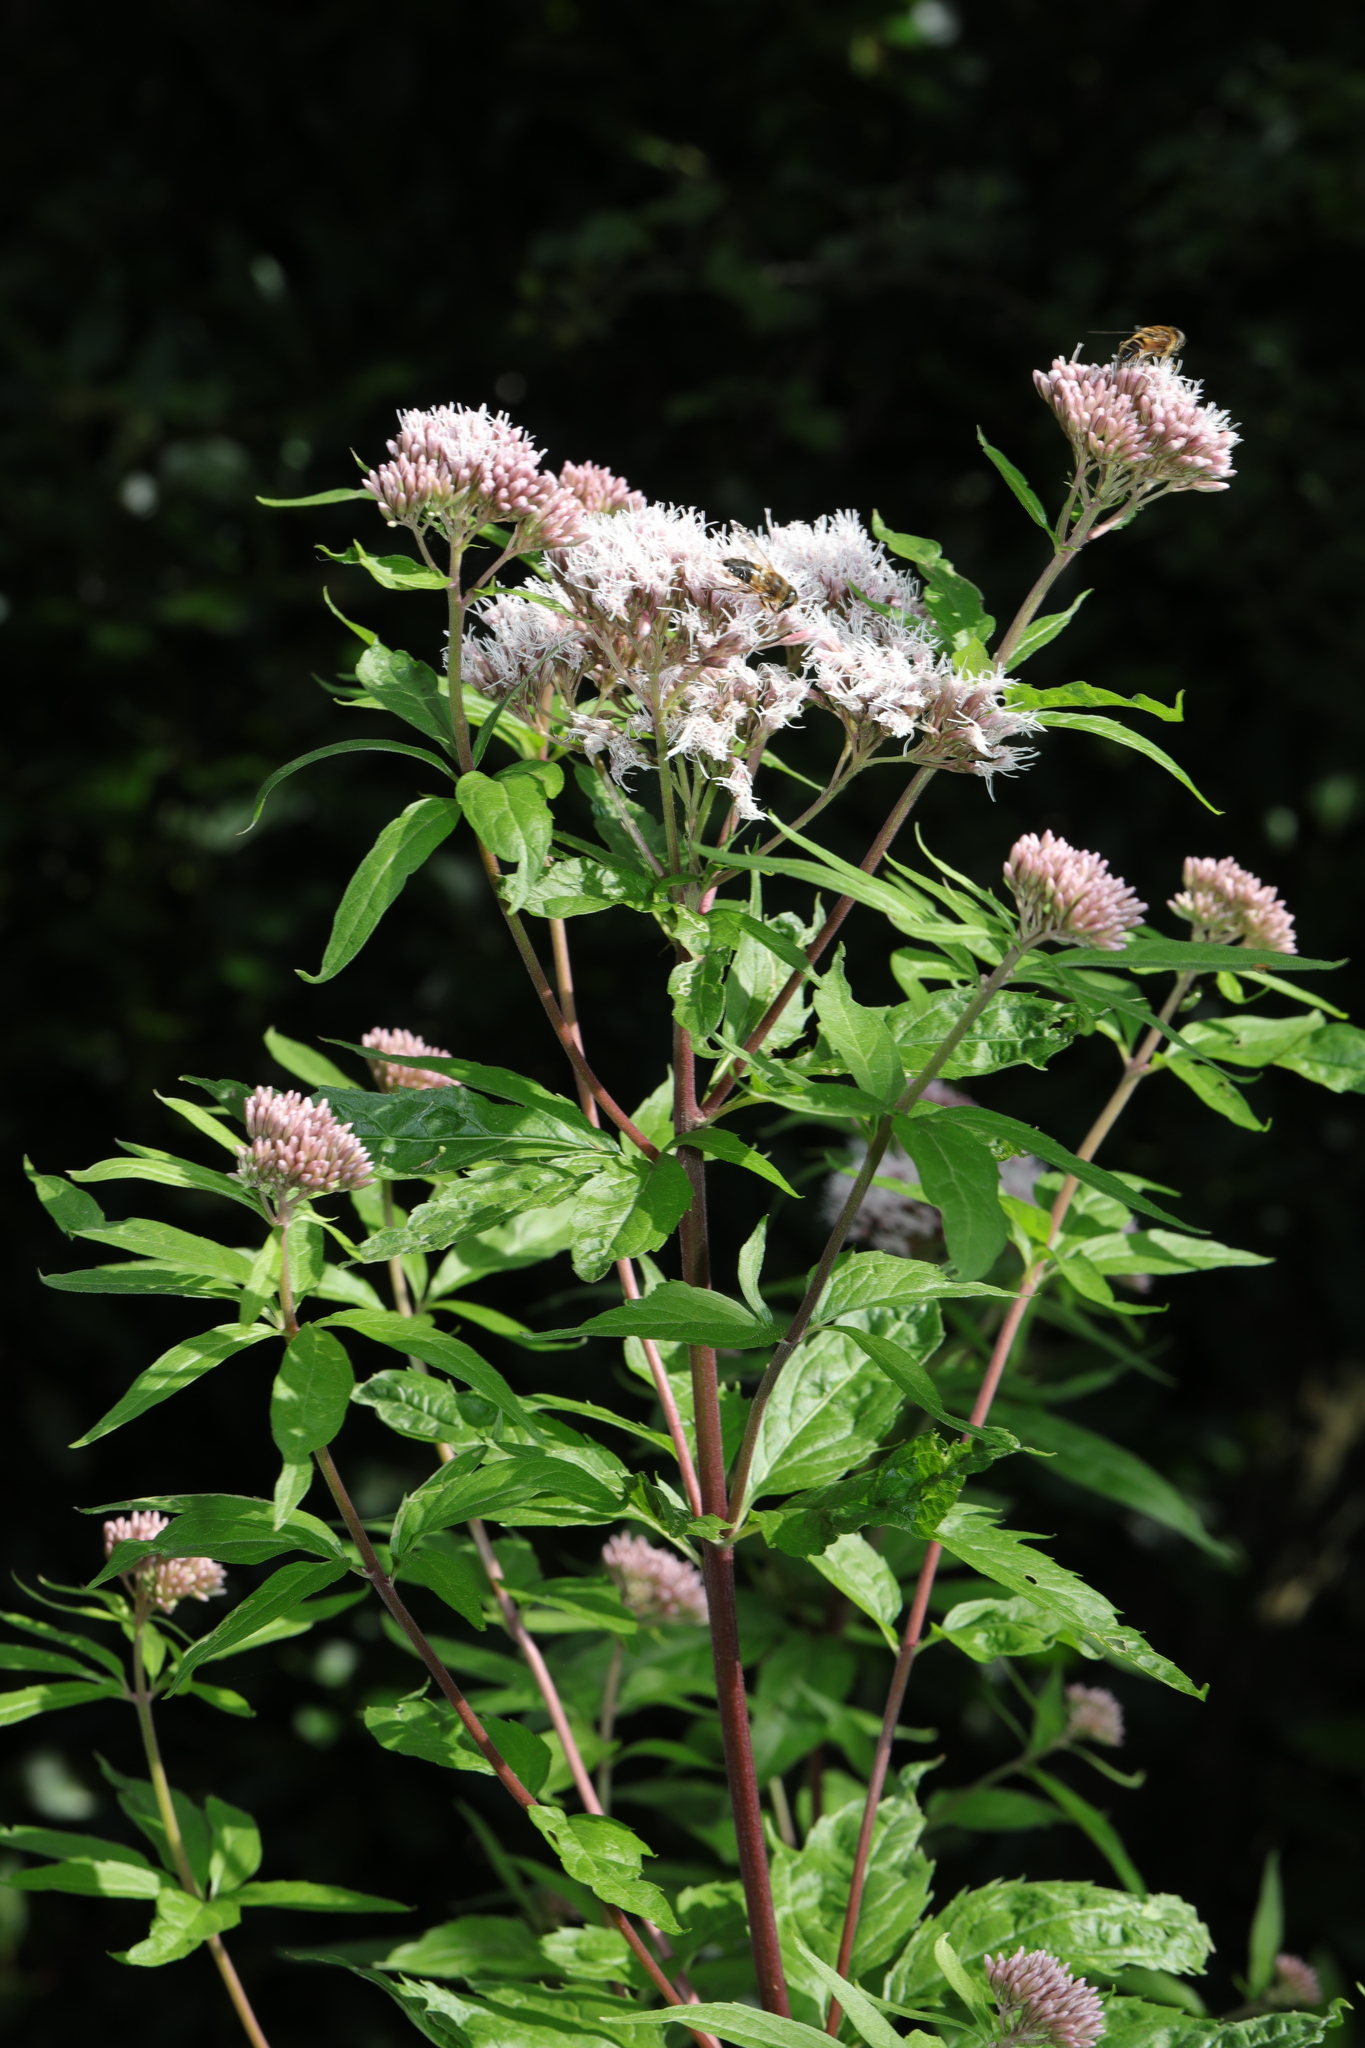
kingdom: Plantae
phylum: Tracheophyta
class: Magnoliopsida
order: Asterales
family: Asteraceae
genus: Eupatorium
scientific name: Eupatorium cannabinum
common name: Hemp-agrimony
